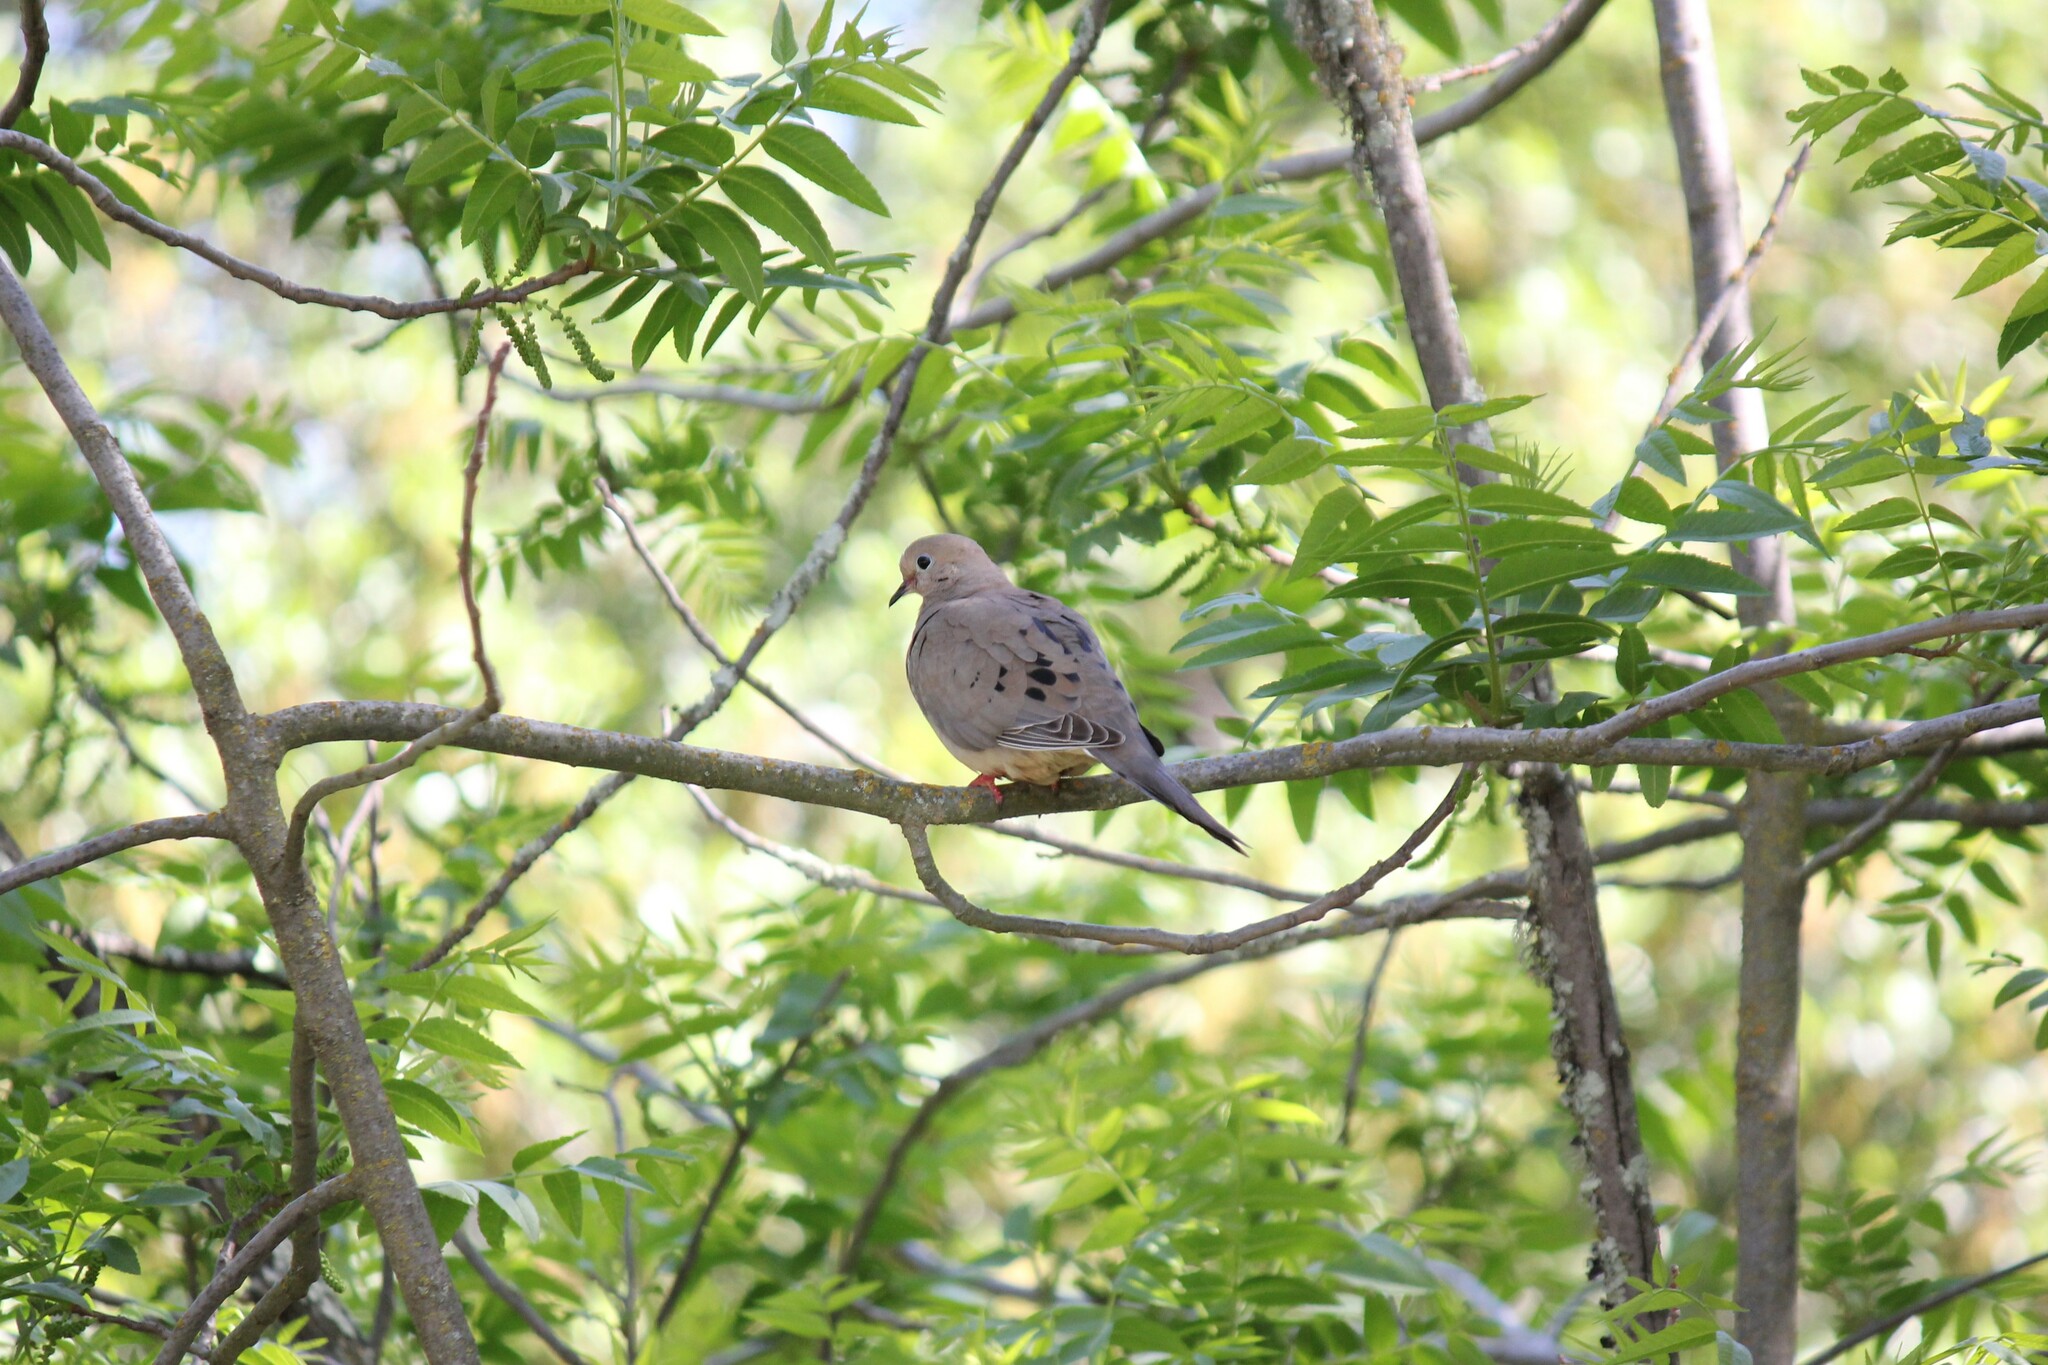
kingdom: Animalia
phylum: Chordata
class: Aves
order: Columbiformes
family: Columbidae
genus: Zenaida
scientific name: Zenaida macroura
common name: Mourning dove
